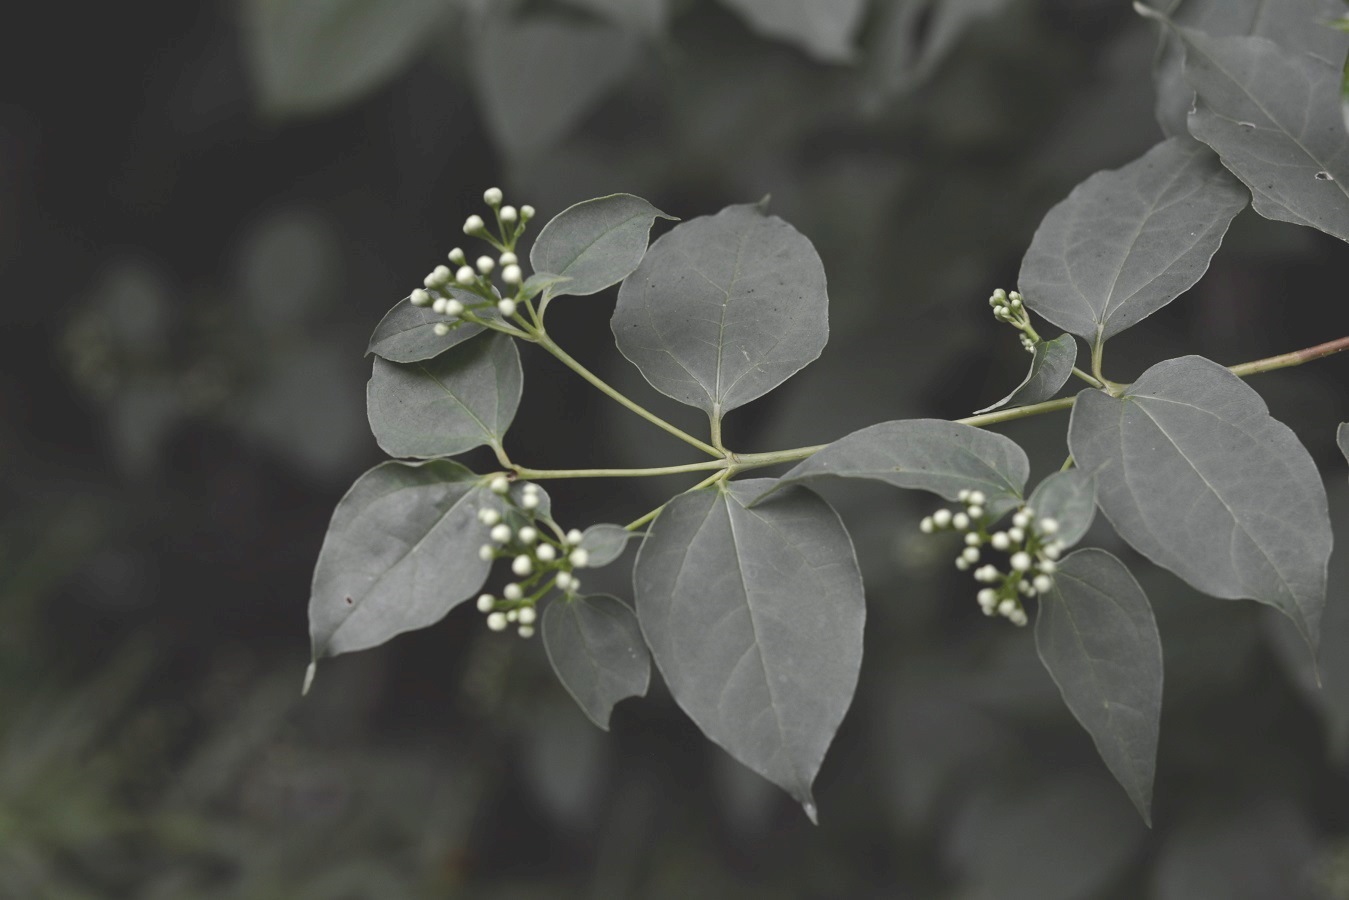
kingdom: Plantae
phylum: Tracheophyta
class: Magnoliopsida
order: Asterales
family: Asteraceae
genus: Salmea
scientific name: Salmea scandens
